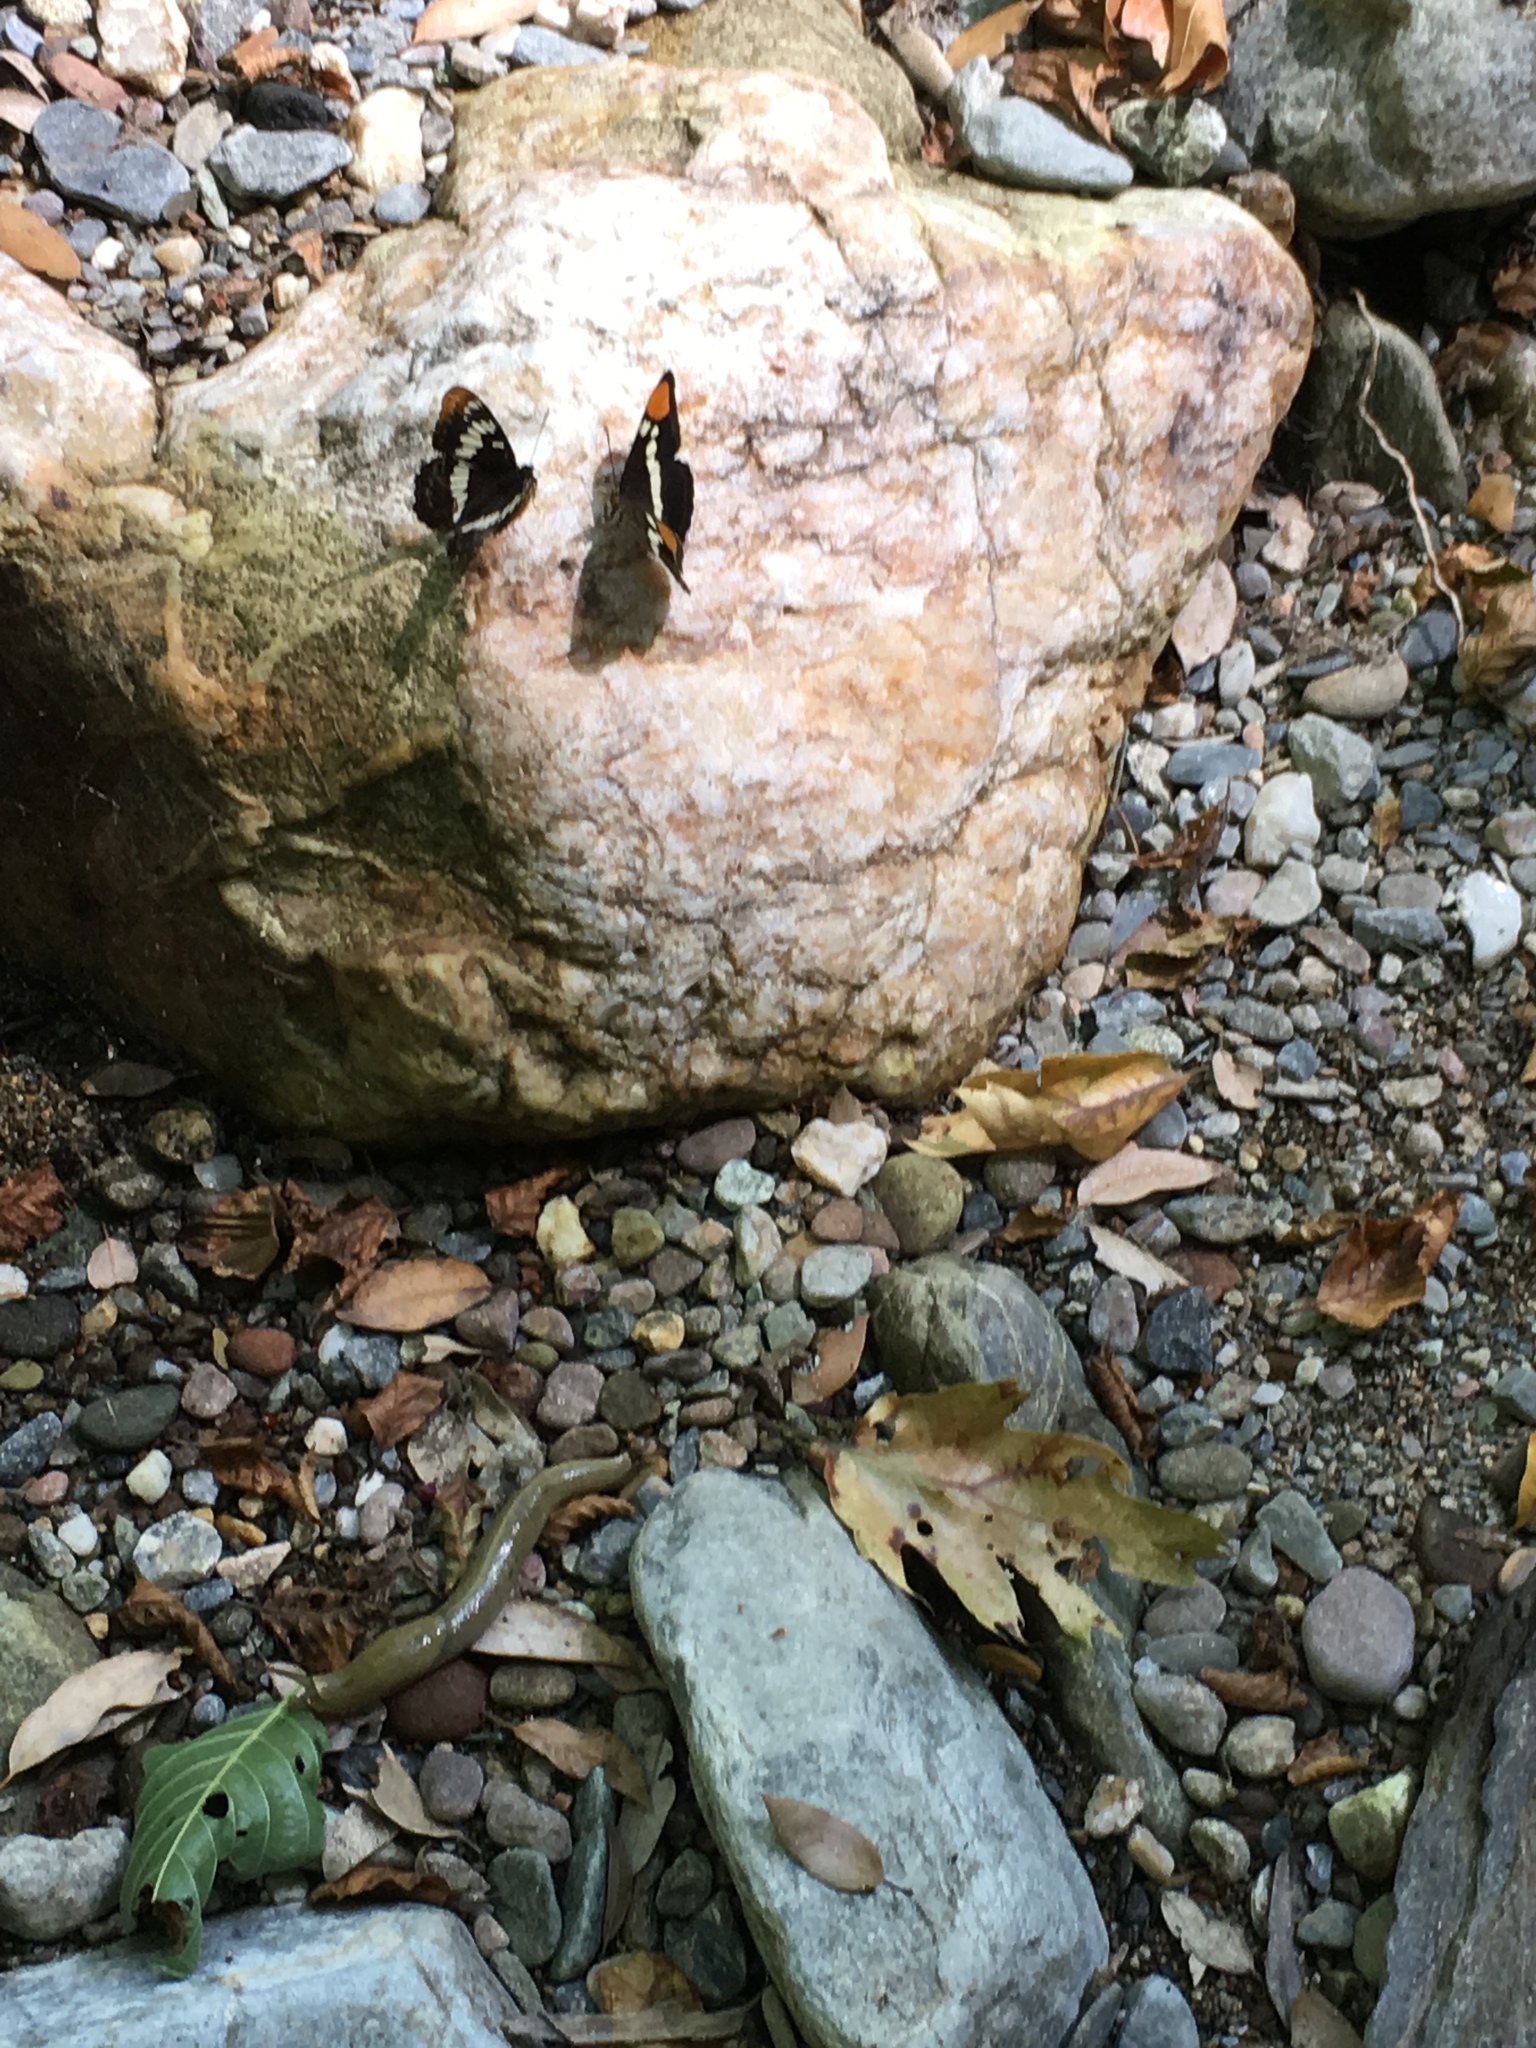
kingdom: Animalia
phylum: Arthropoda
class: Insecta
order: Lepidoptera
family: Nymphalidae
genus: Limenitis
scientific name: Limenitis bredowii
